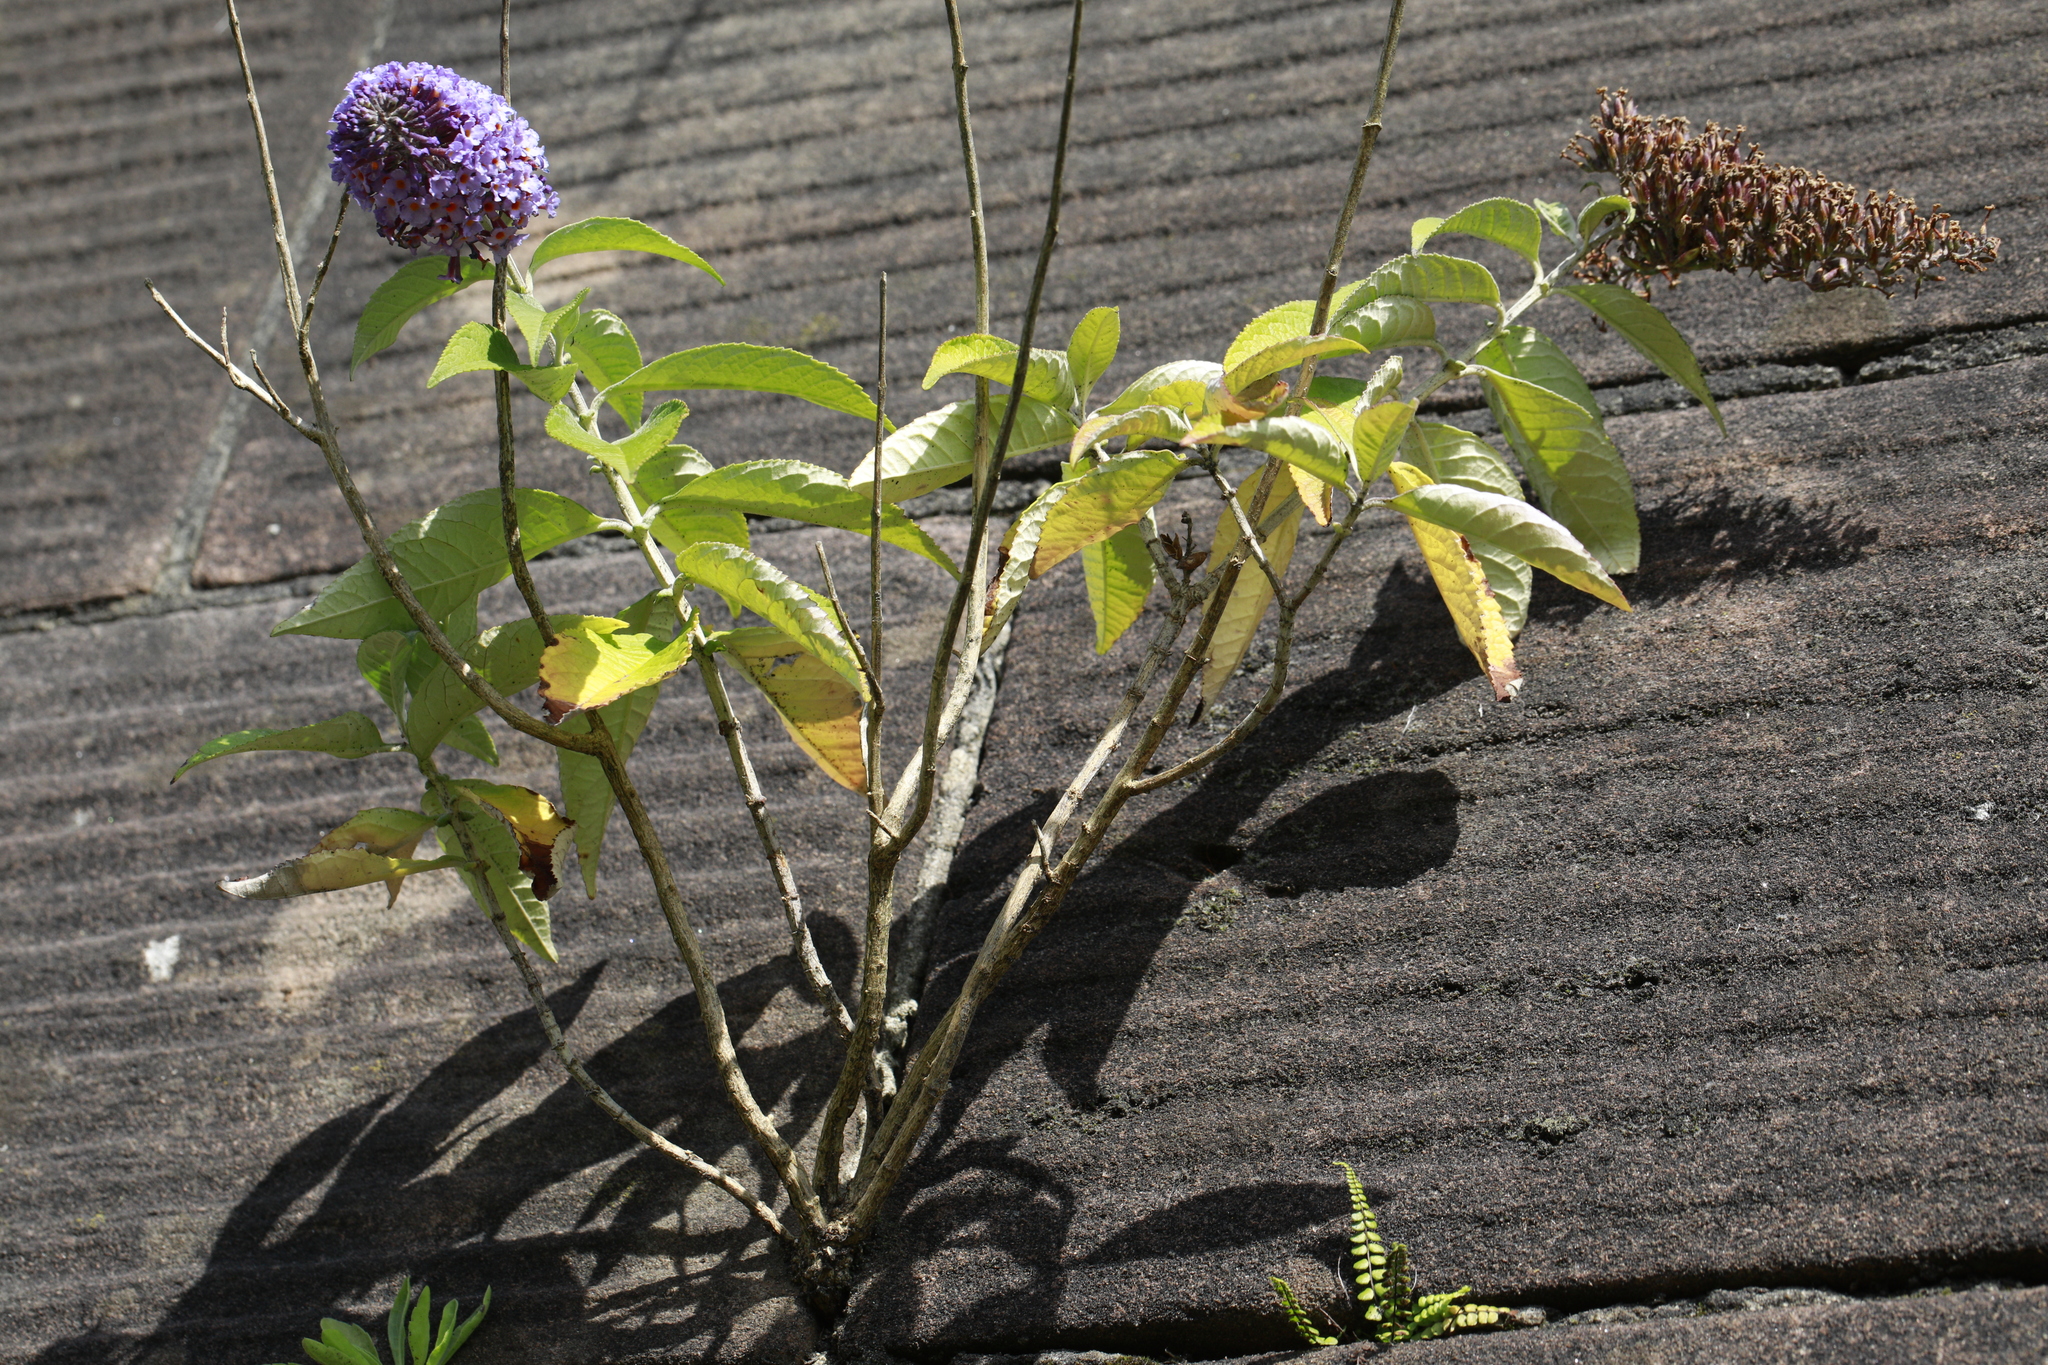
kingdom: Plantae
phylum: Tracheophyta
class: Magnoliopsida
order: Lamiales
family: Scrophulariaceae
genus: Buddleja
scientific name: Buddleja davidii
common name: Butterfly-bush
